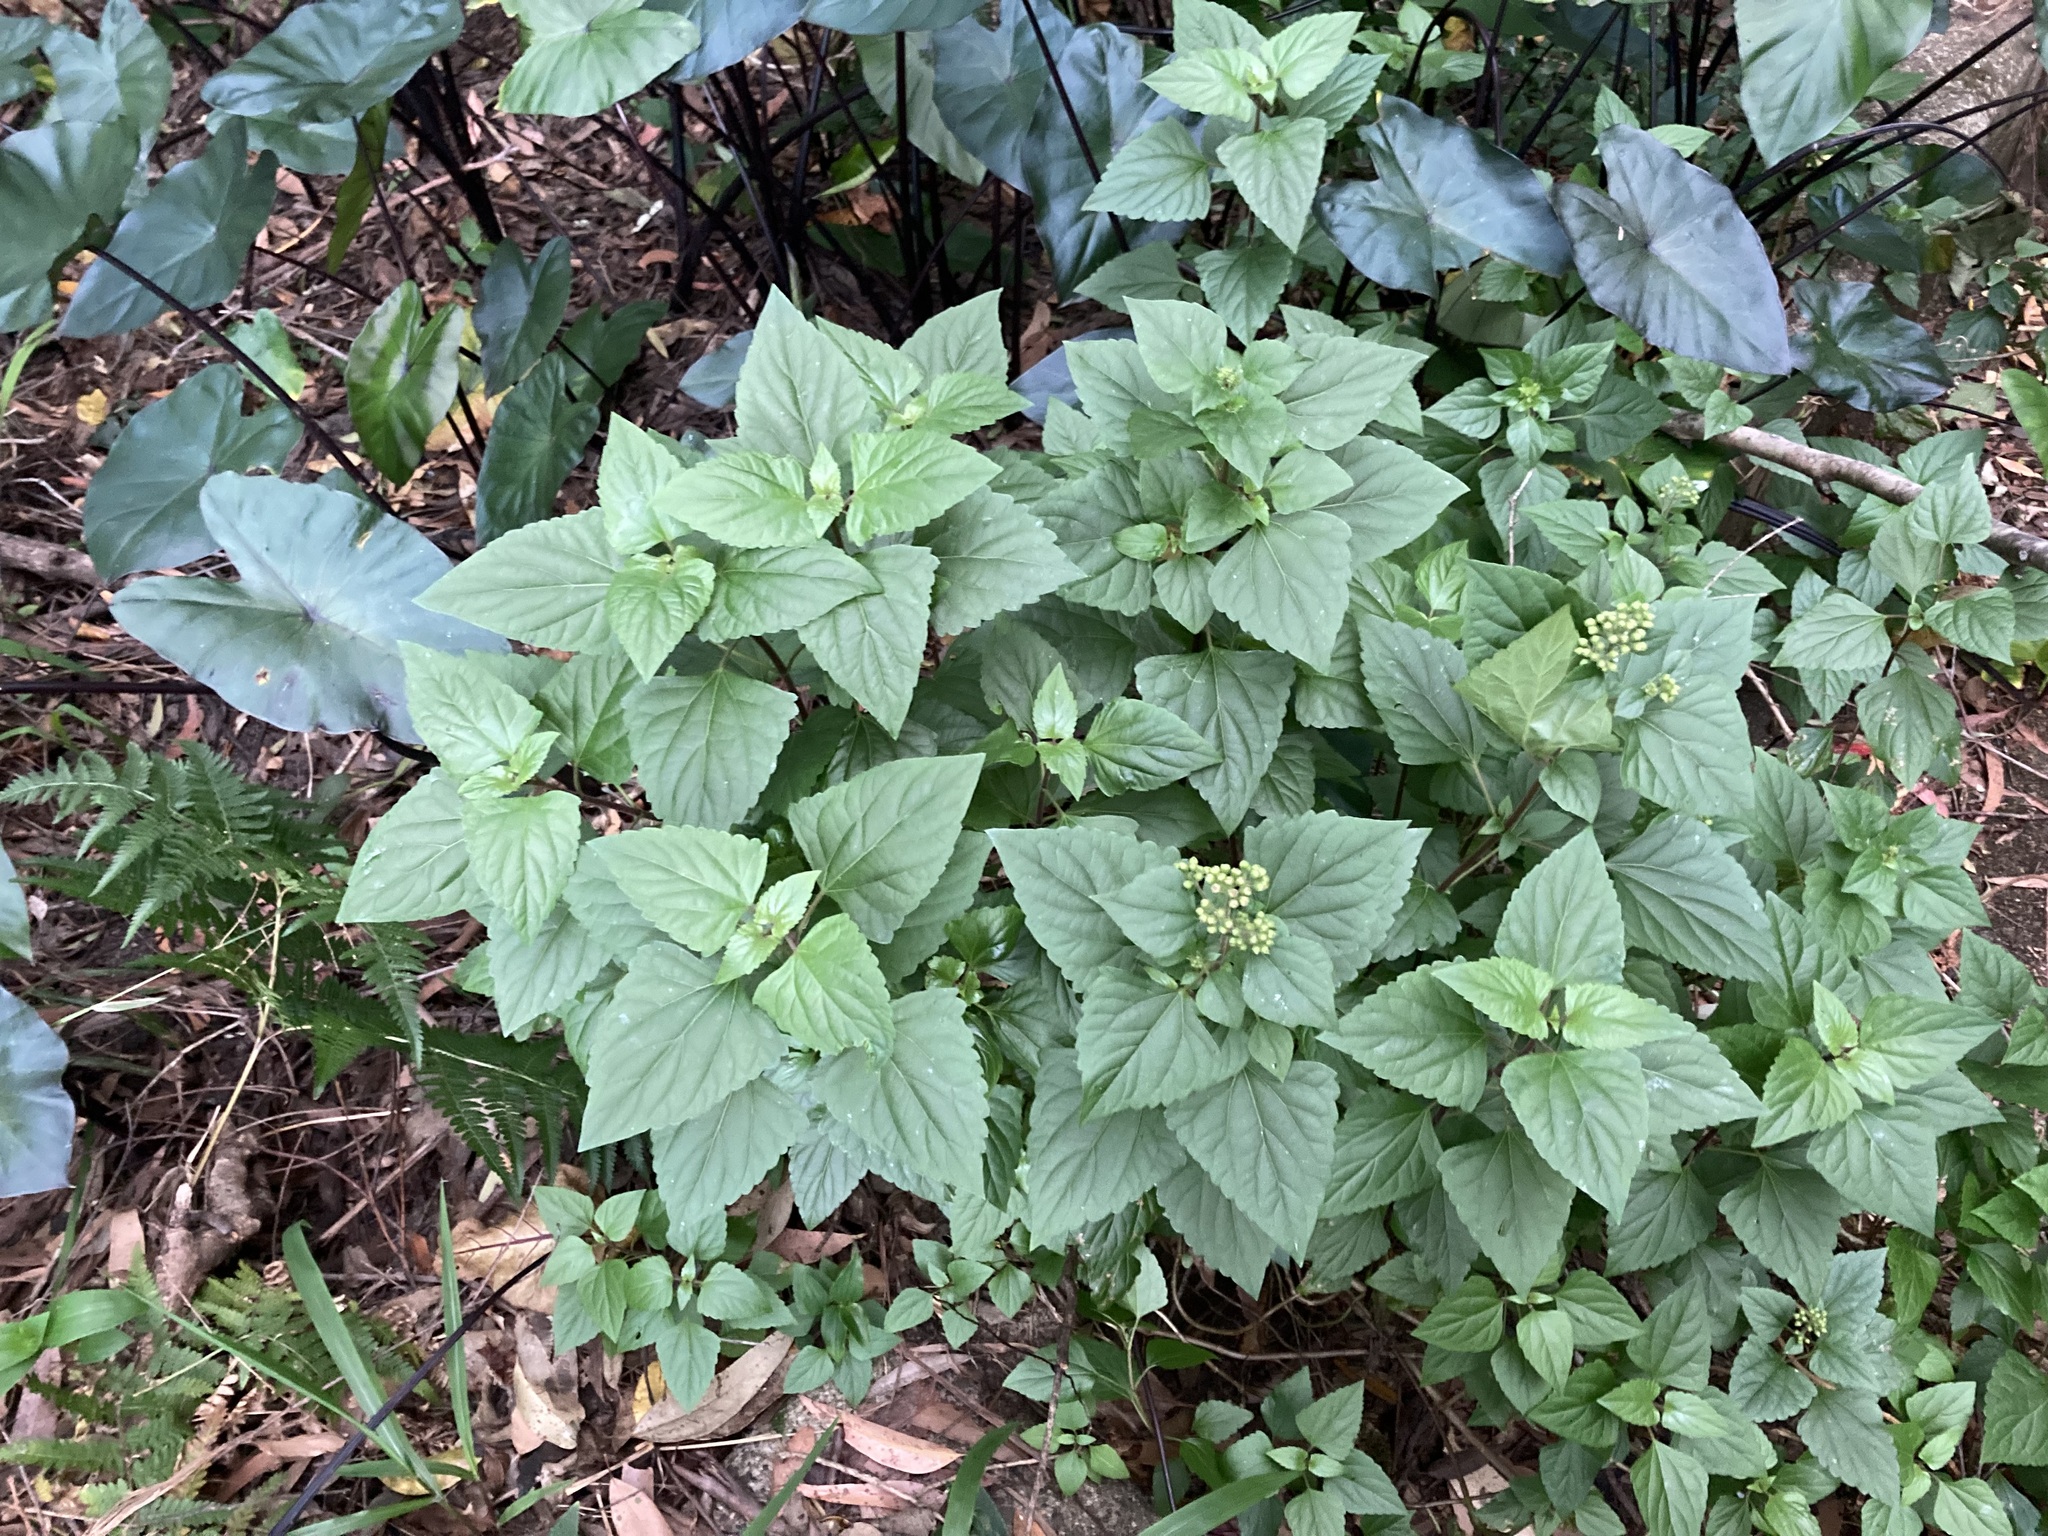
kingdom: Plantae
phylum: Tracheophyta
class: Magnoliopsida
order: Asterales
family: Asteraceae
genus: Ageratina
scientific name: Ageratina adenophora
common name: Sticky snakeroot
